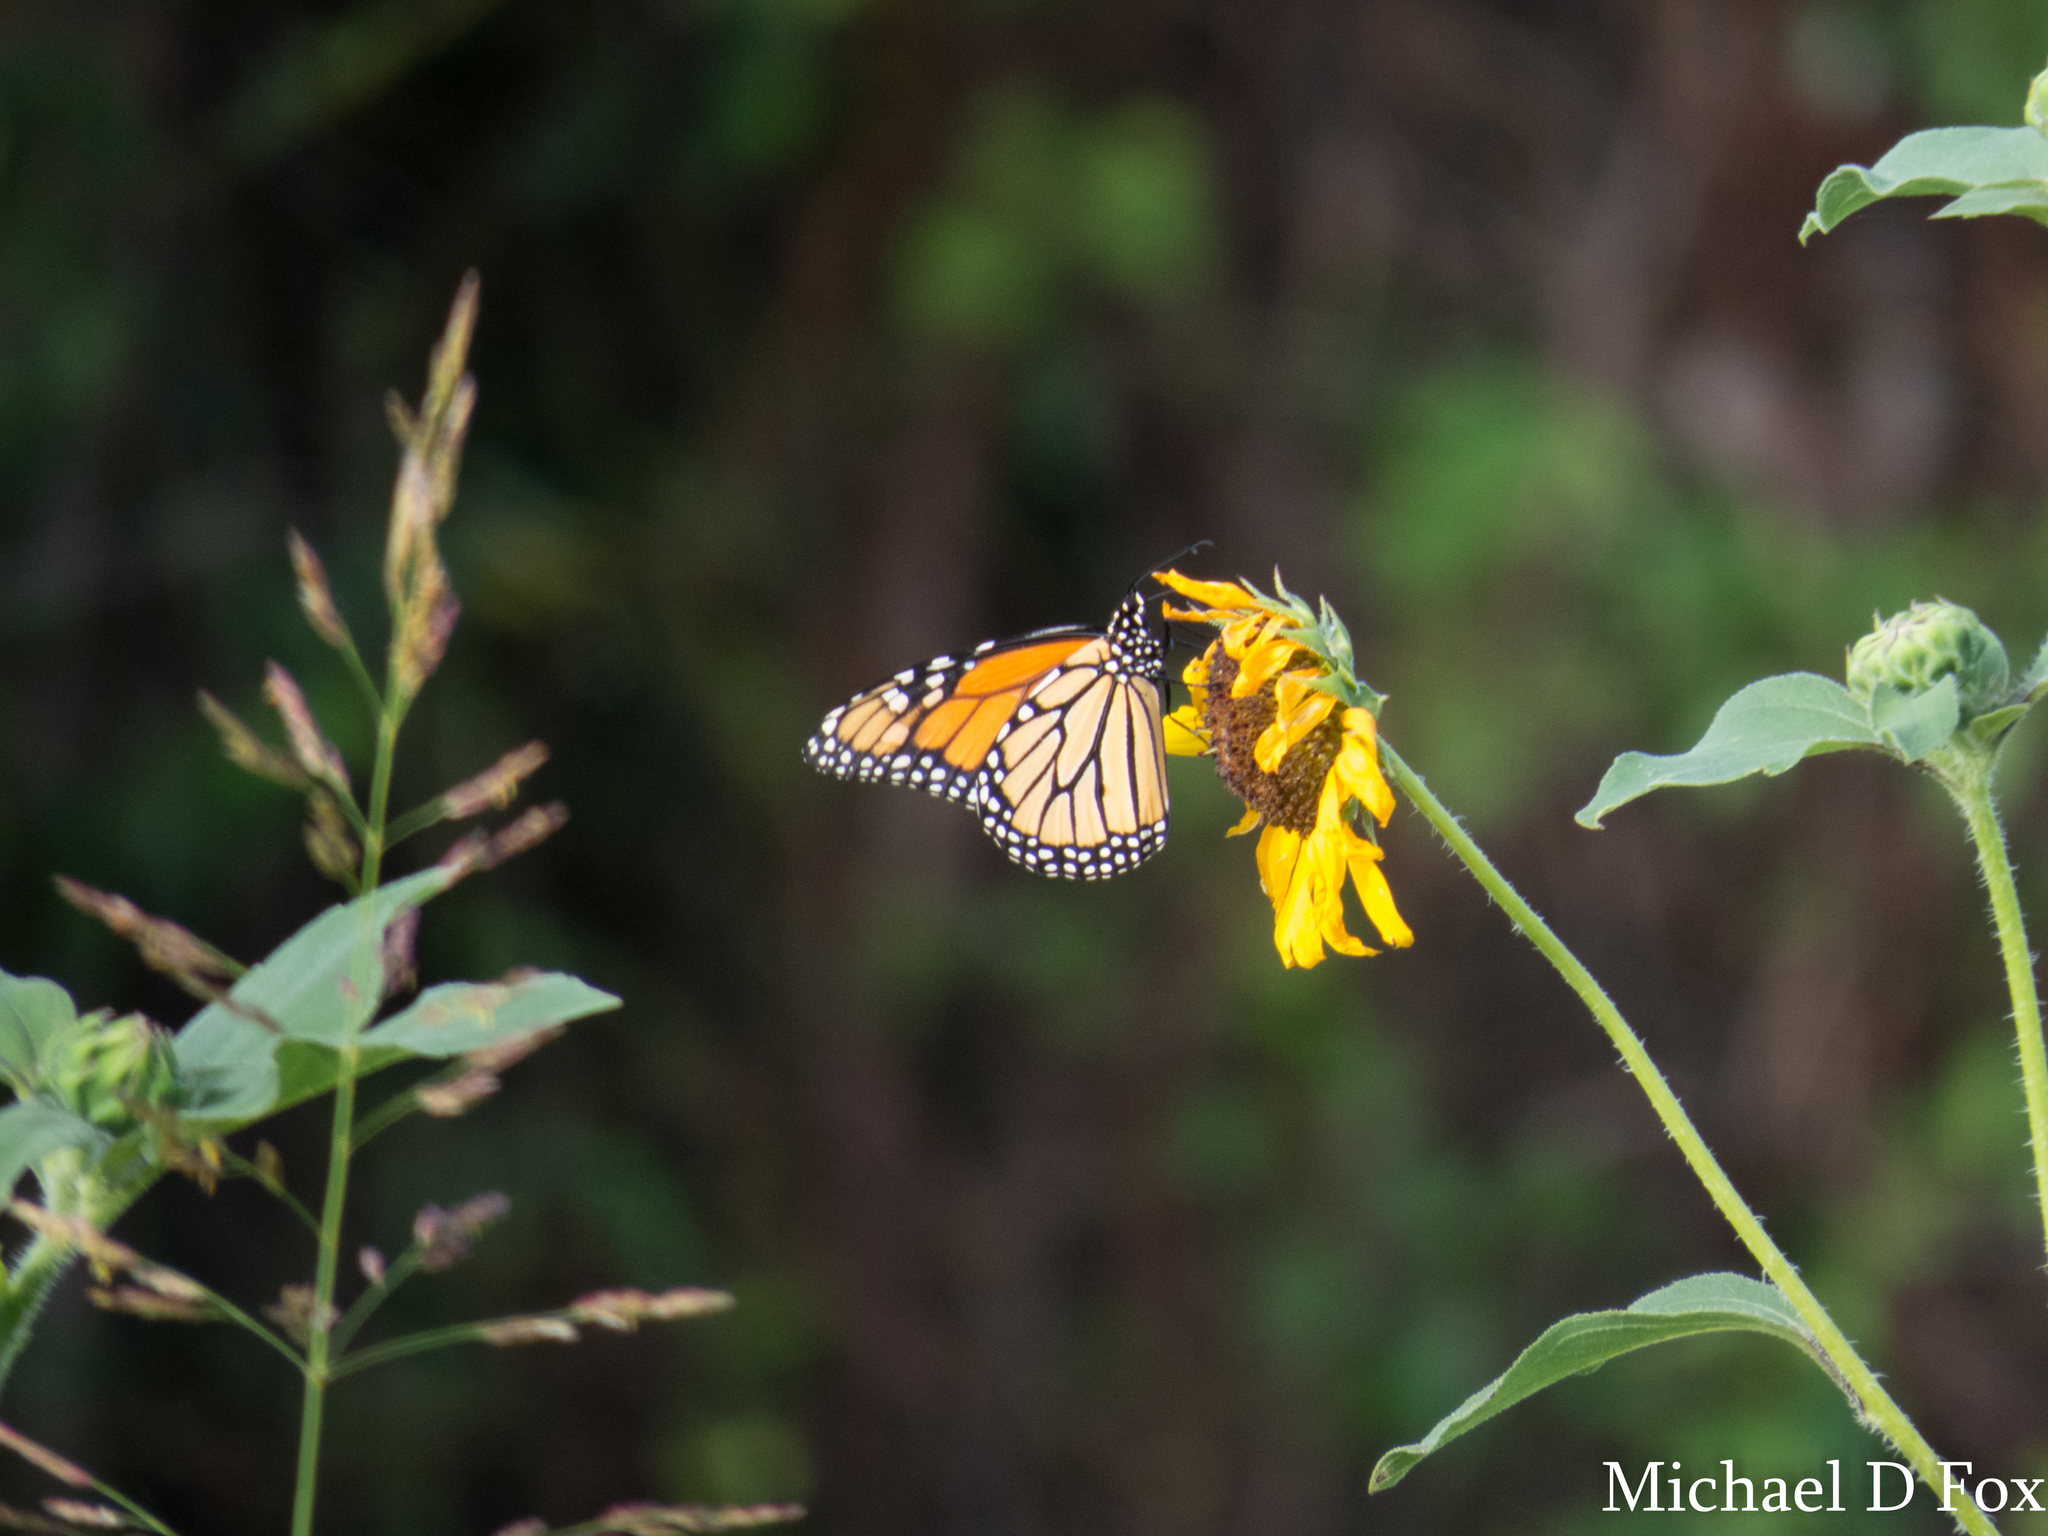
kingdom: Animalia
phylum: Arthropoda
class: Insecta
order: Lepidoptera
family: Nymphalidae
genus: Danaus
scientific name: Danaus plexippus
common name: Monarch
